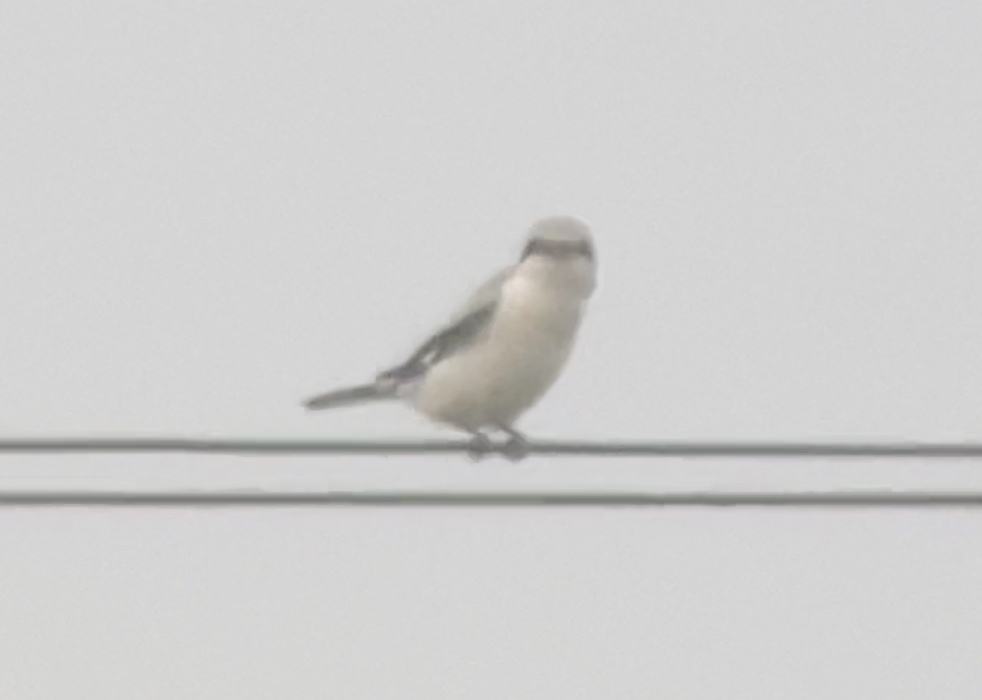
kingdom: Animalia
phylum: Chordata
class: Aves
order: Passeriformes
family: Laniidae
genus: Lanius
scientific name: Lanius excubitor
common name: Great grey shrike
